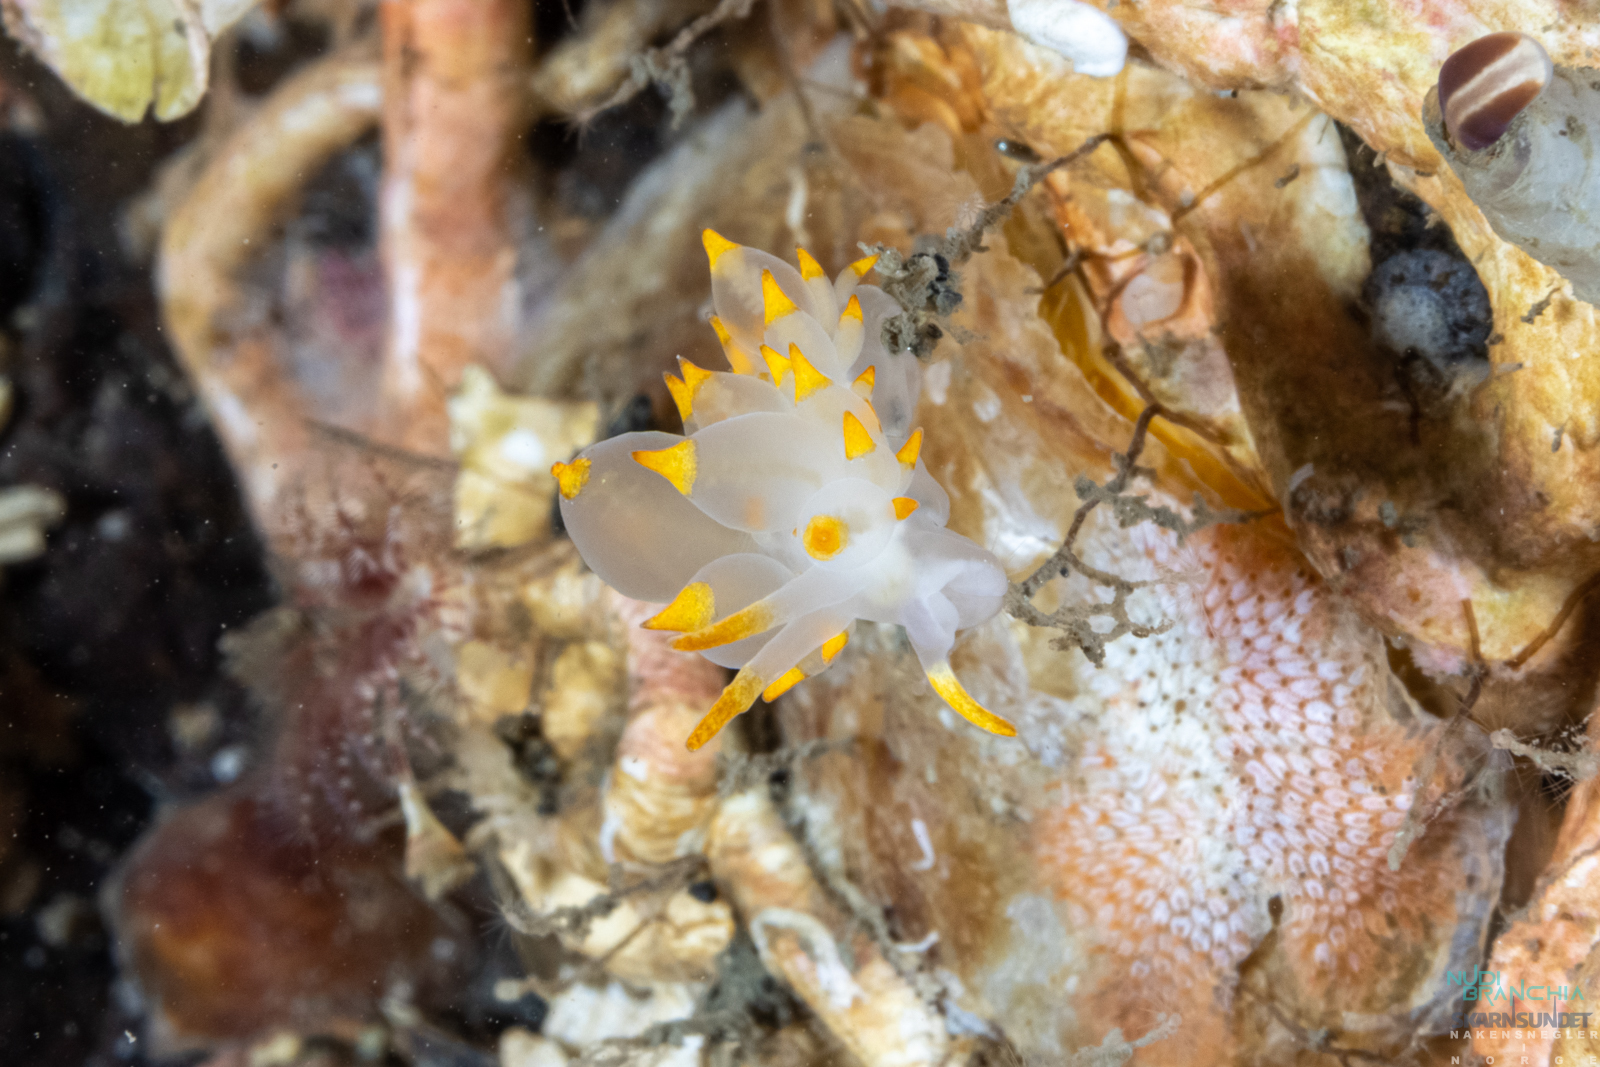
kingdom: Animalia
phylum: Mollusca
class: Gastropoda
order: Nudibranchia
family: Eubranchidae
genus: Amphorina
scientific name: Amphorina farrani
